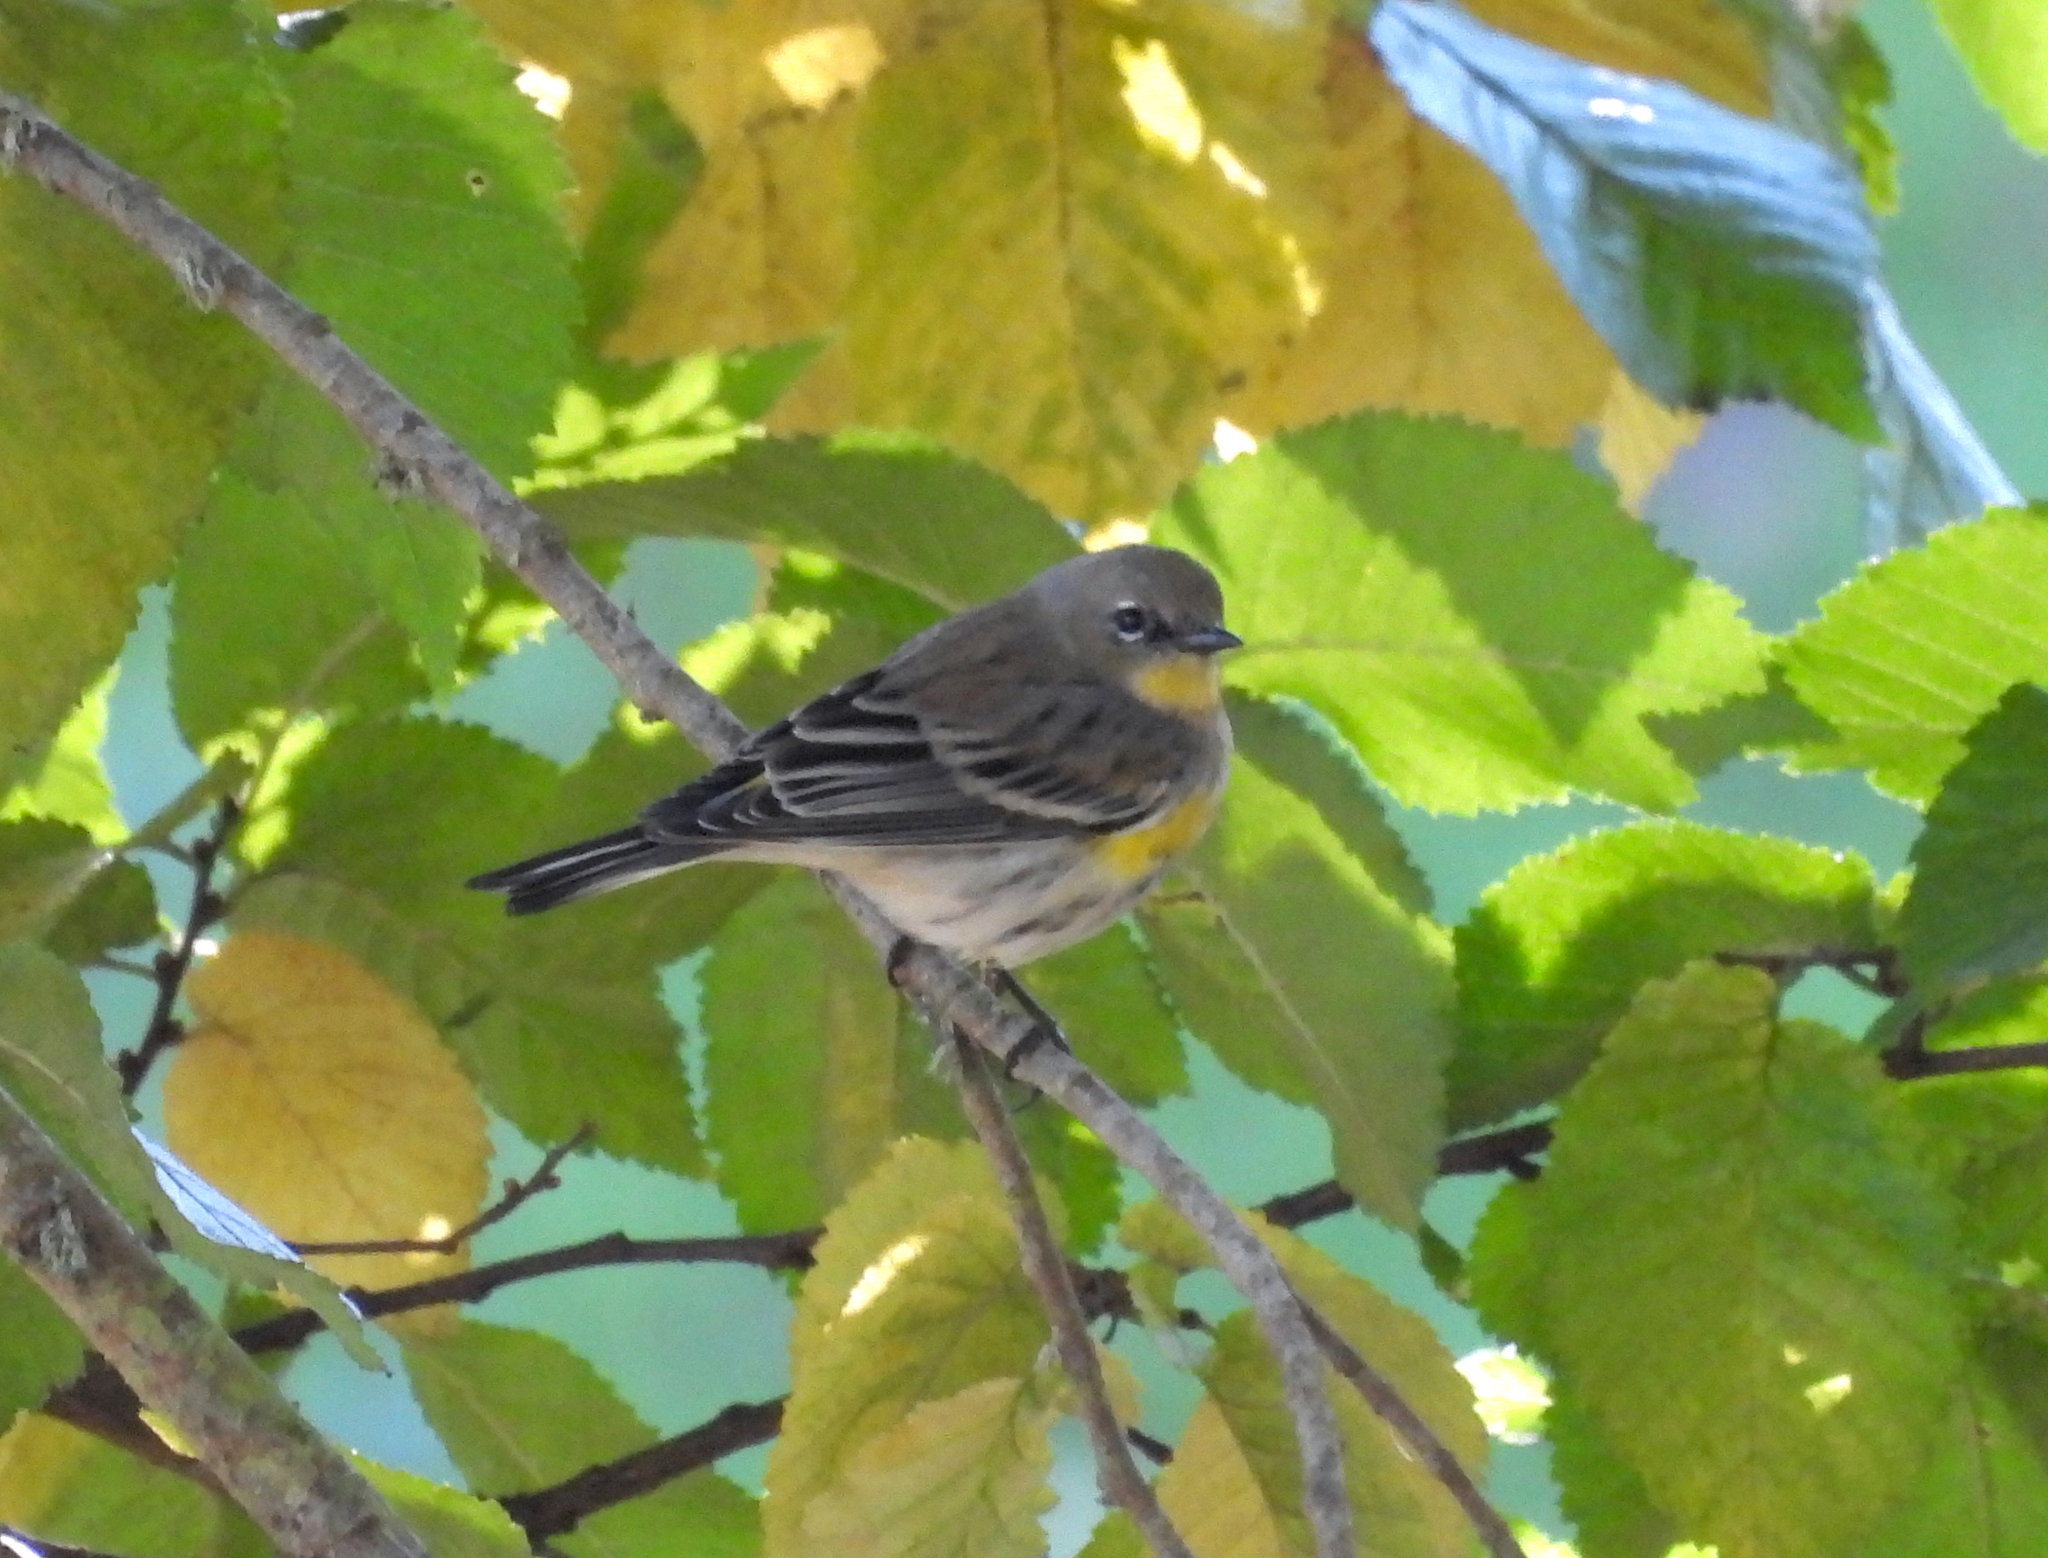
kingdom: Animalia
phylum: Chordata
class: Aves
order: Passeriformes
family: Parulidae
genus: Setophaga
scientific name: Setophaga auduboni
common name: Audubon's warbler
